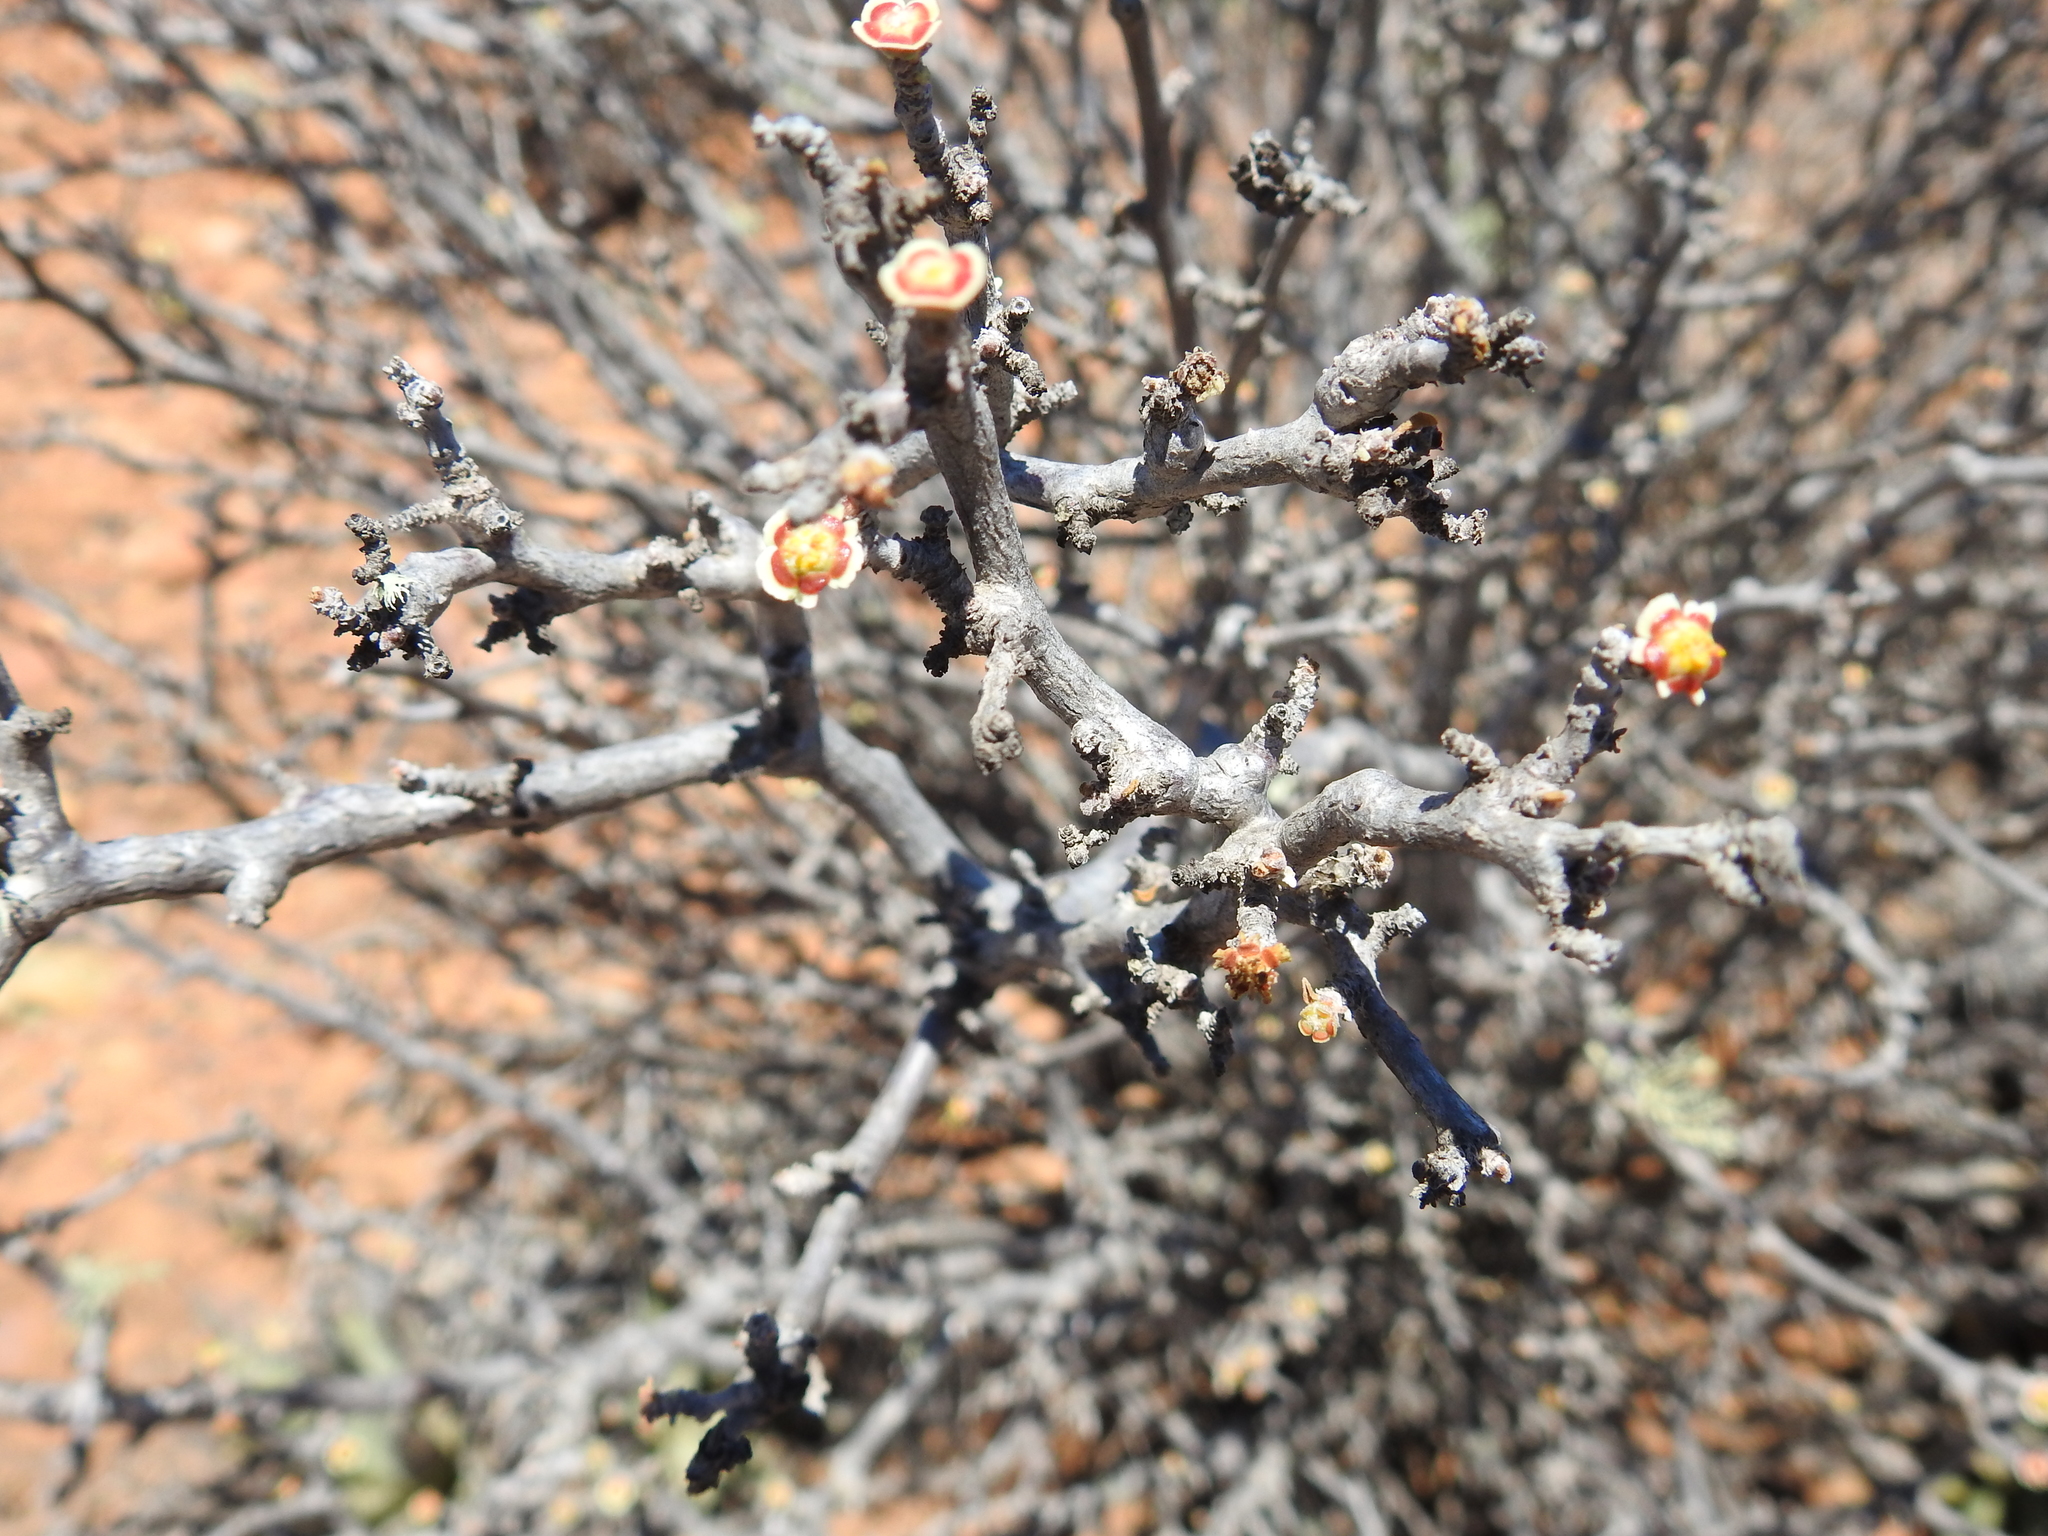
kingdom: Plantae
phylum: Tracheophyta
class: Magnoliopsida
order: Malpighiales
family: Euphorbiaceae
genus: Euphorbia
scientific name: Euphorbia misera
